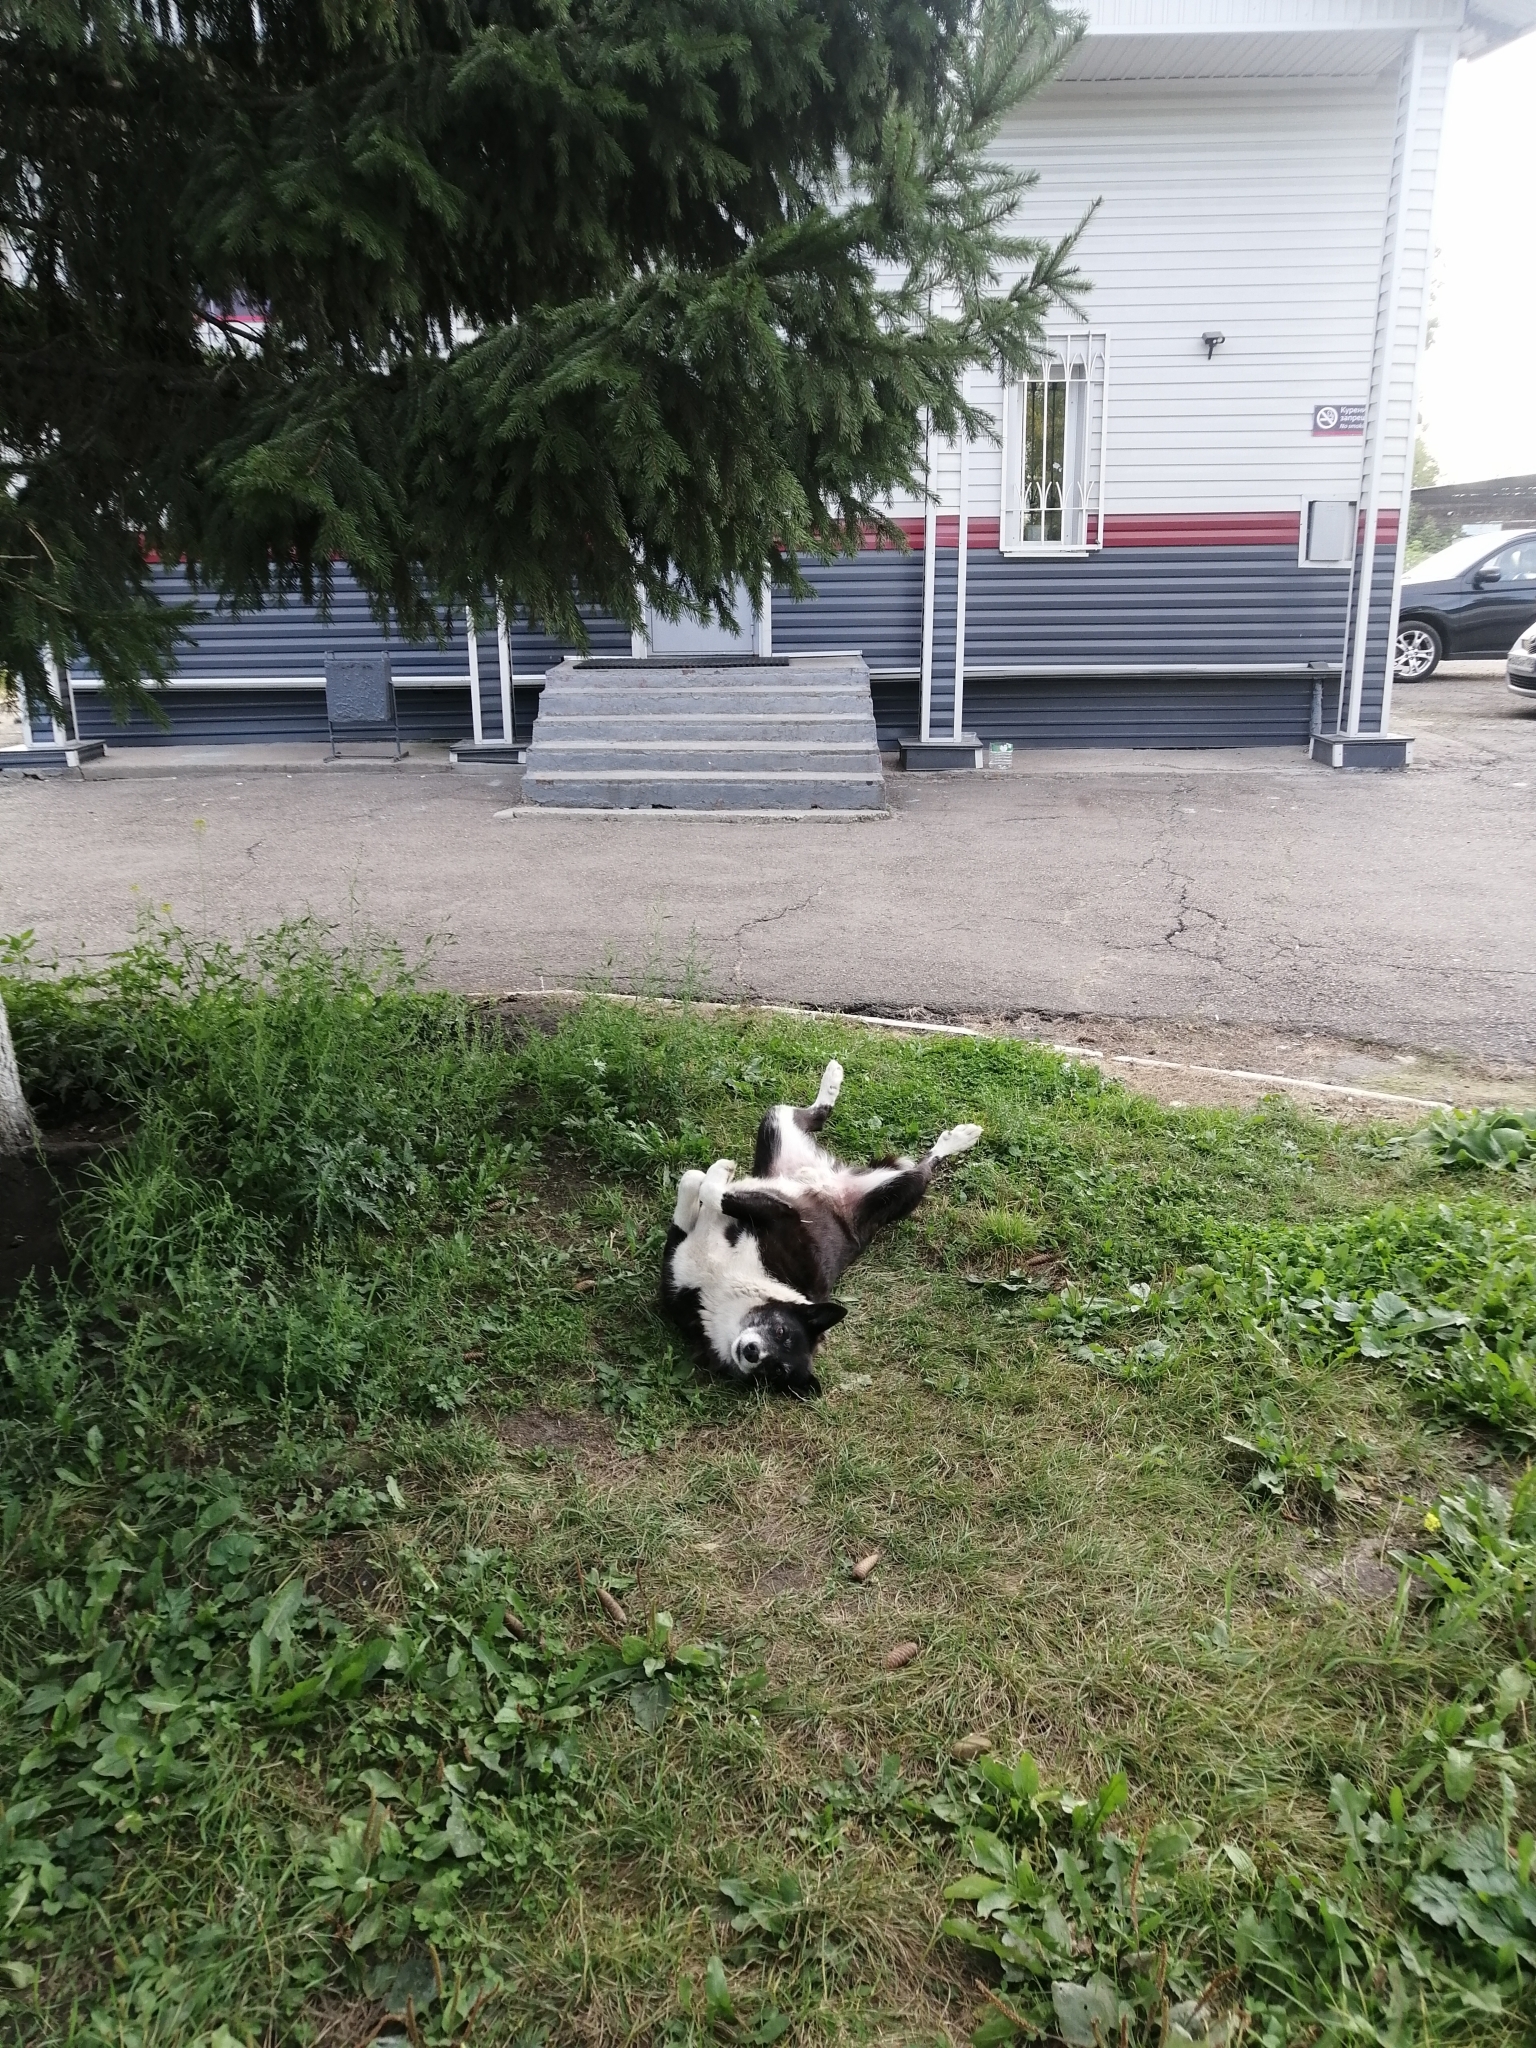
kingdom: Animalia
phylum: Chordata
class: Mammalia
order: Carnivora
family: Canidae
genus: Canis
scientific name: Canis lupus
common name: Gray wolf
